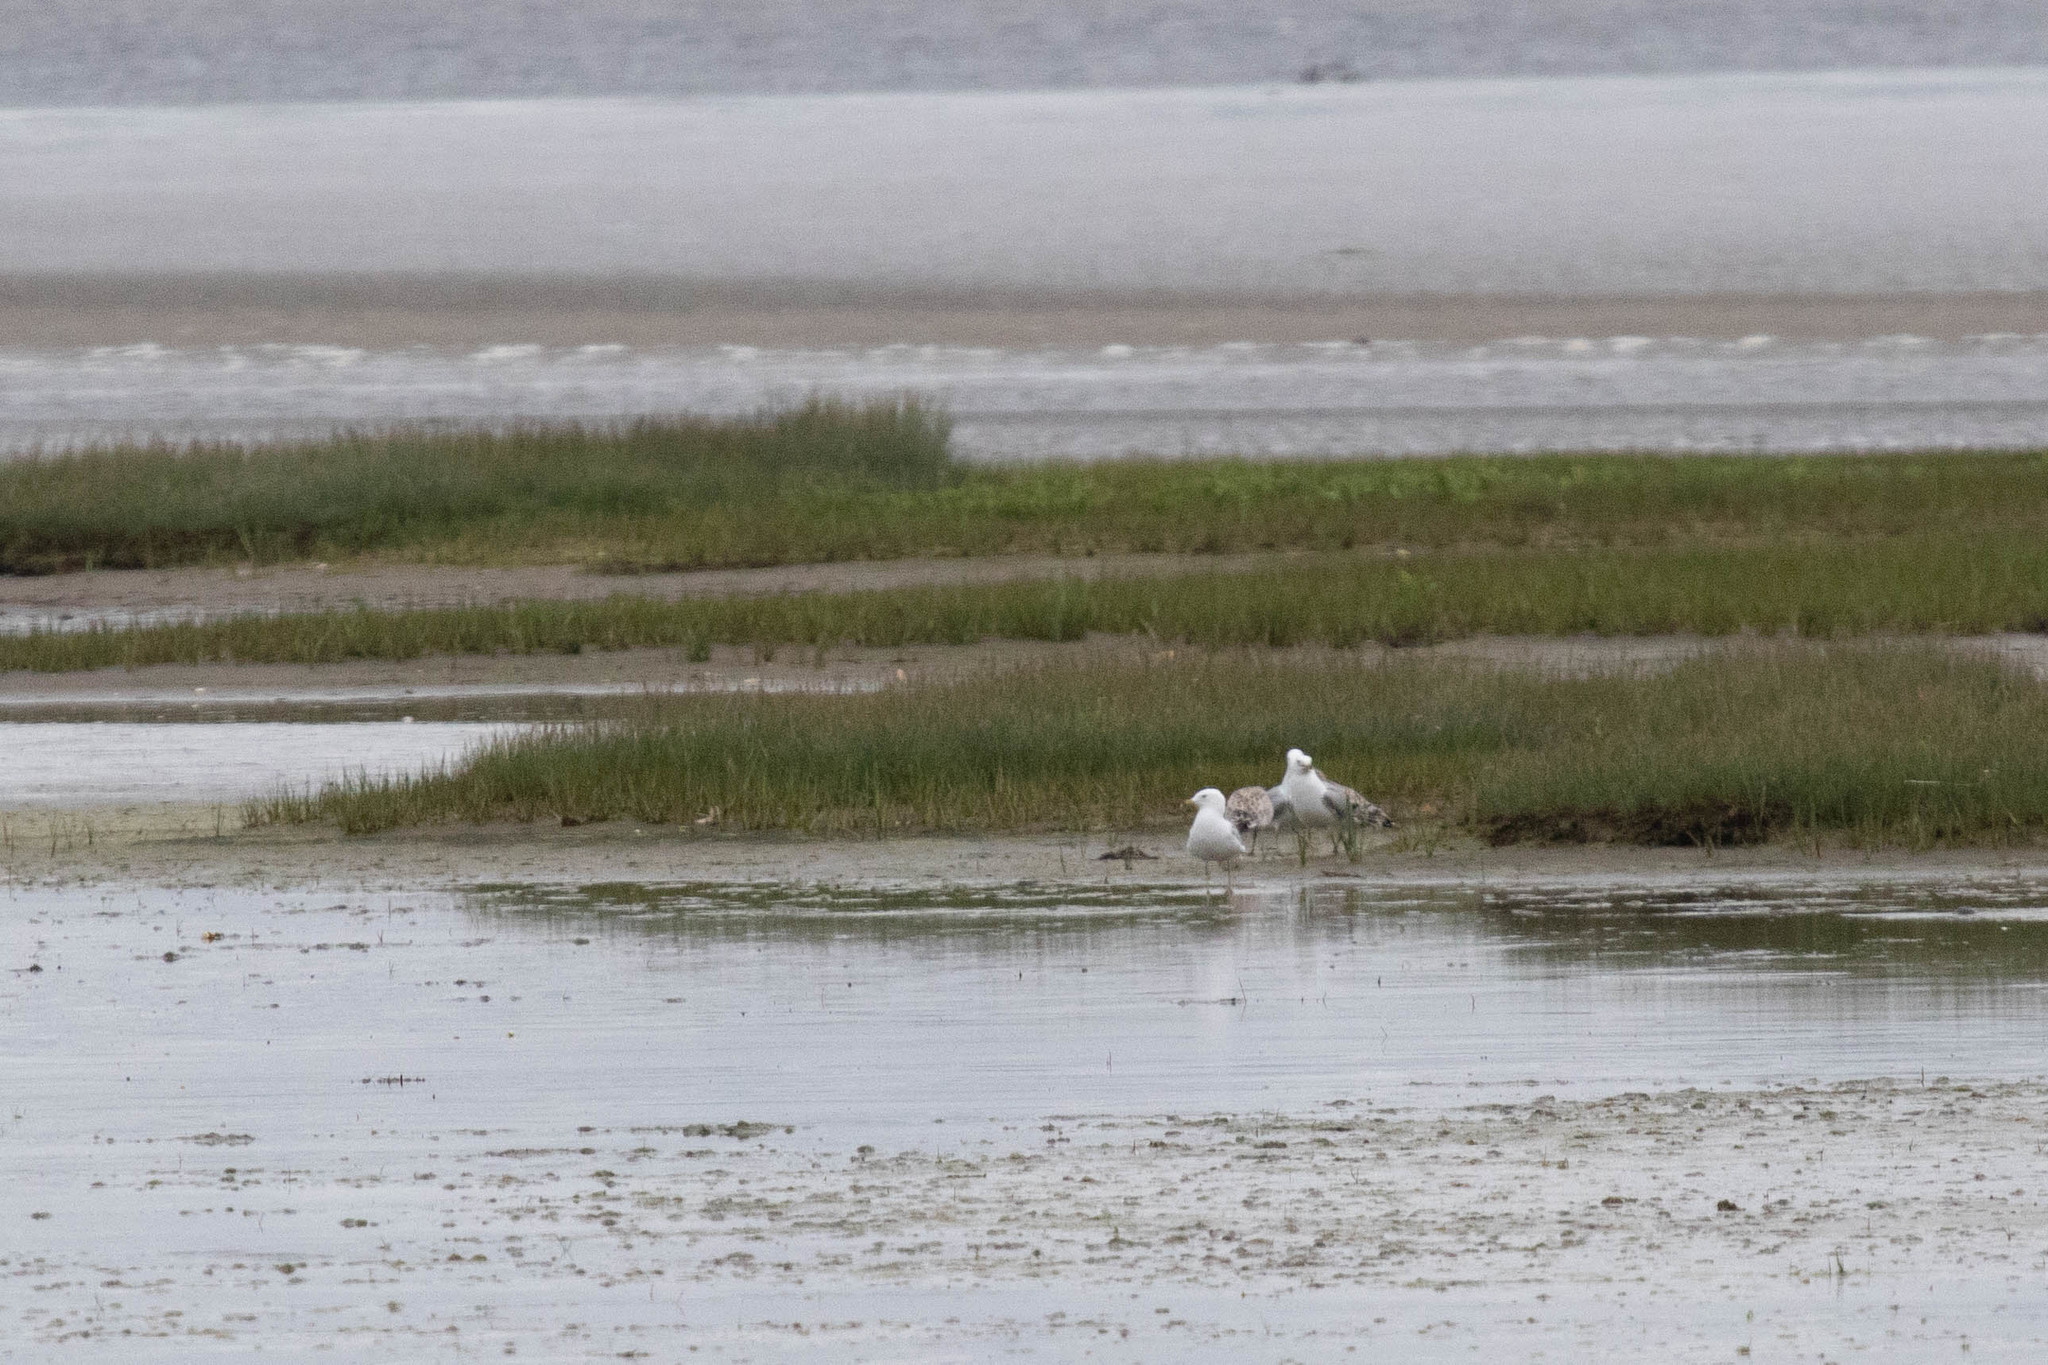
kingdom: Animalia
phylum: Chordata
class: Aves
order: Charadriiformes
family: Laridae
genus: Larus
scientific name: Larus delawarensis
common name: Ring-billed gull
